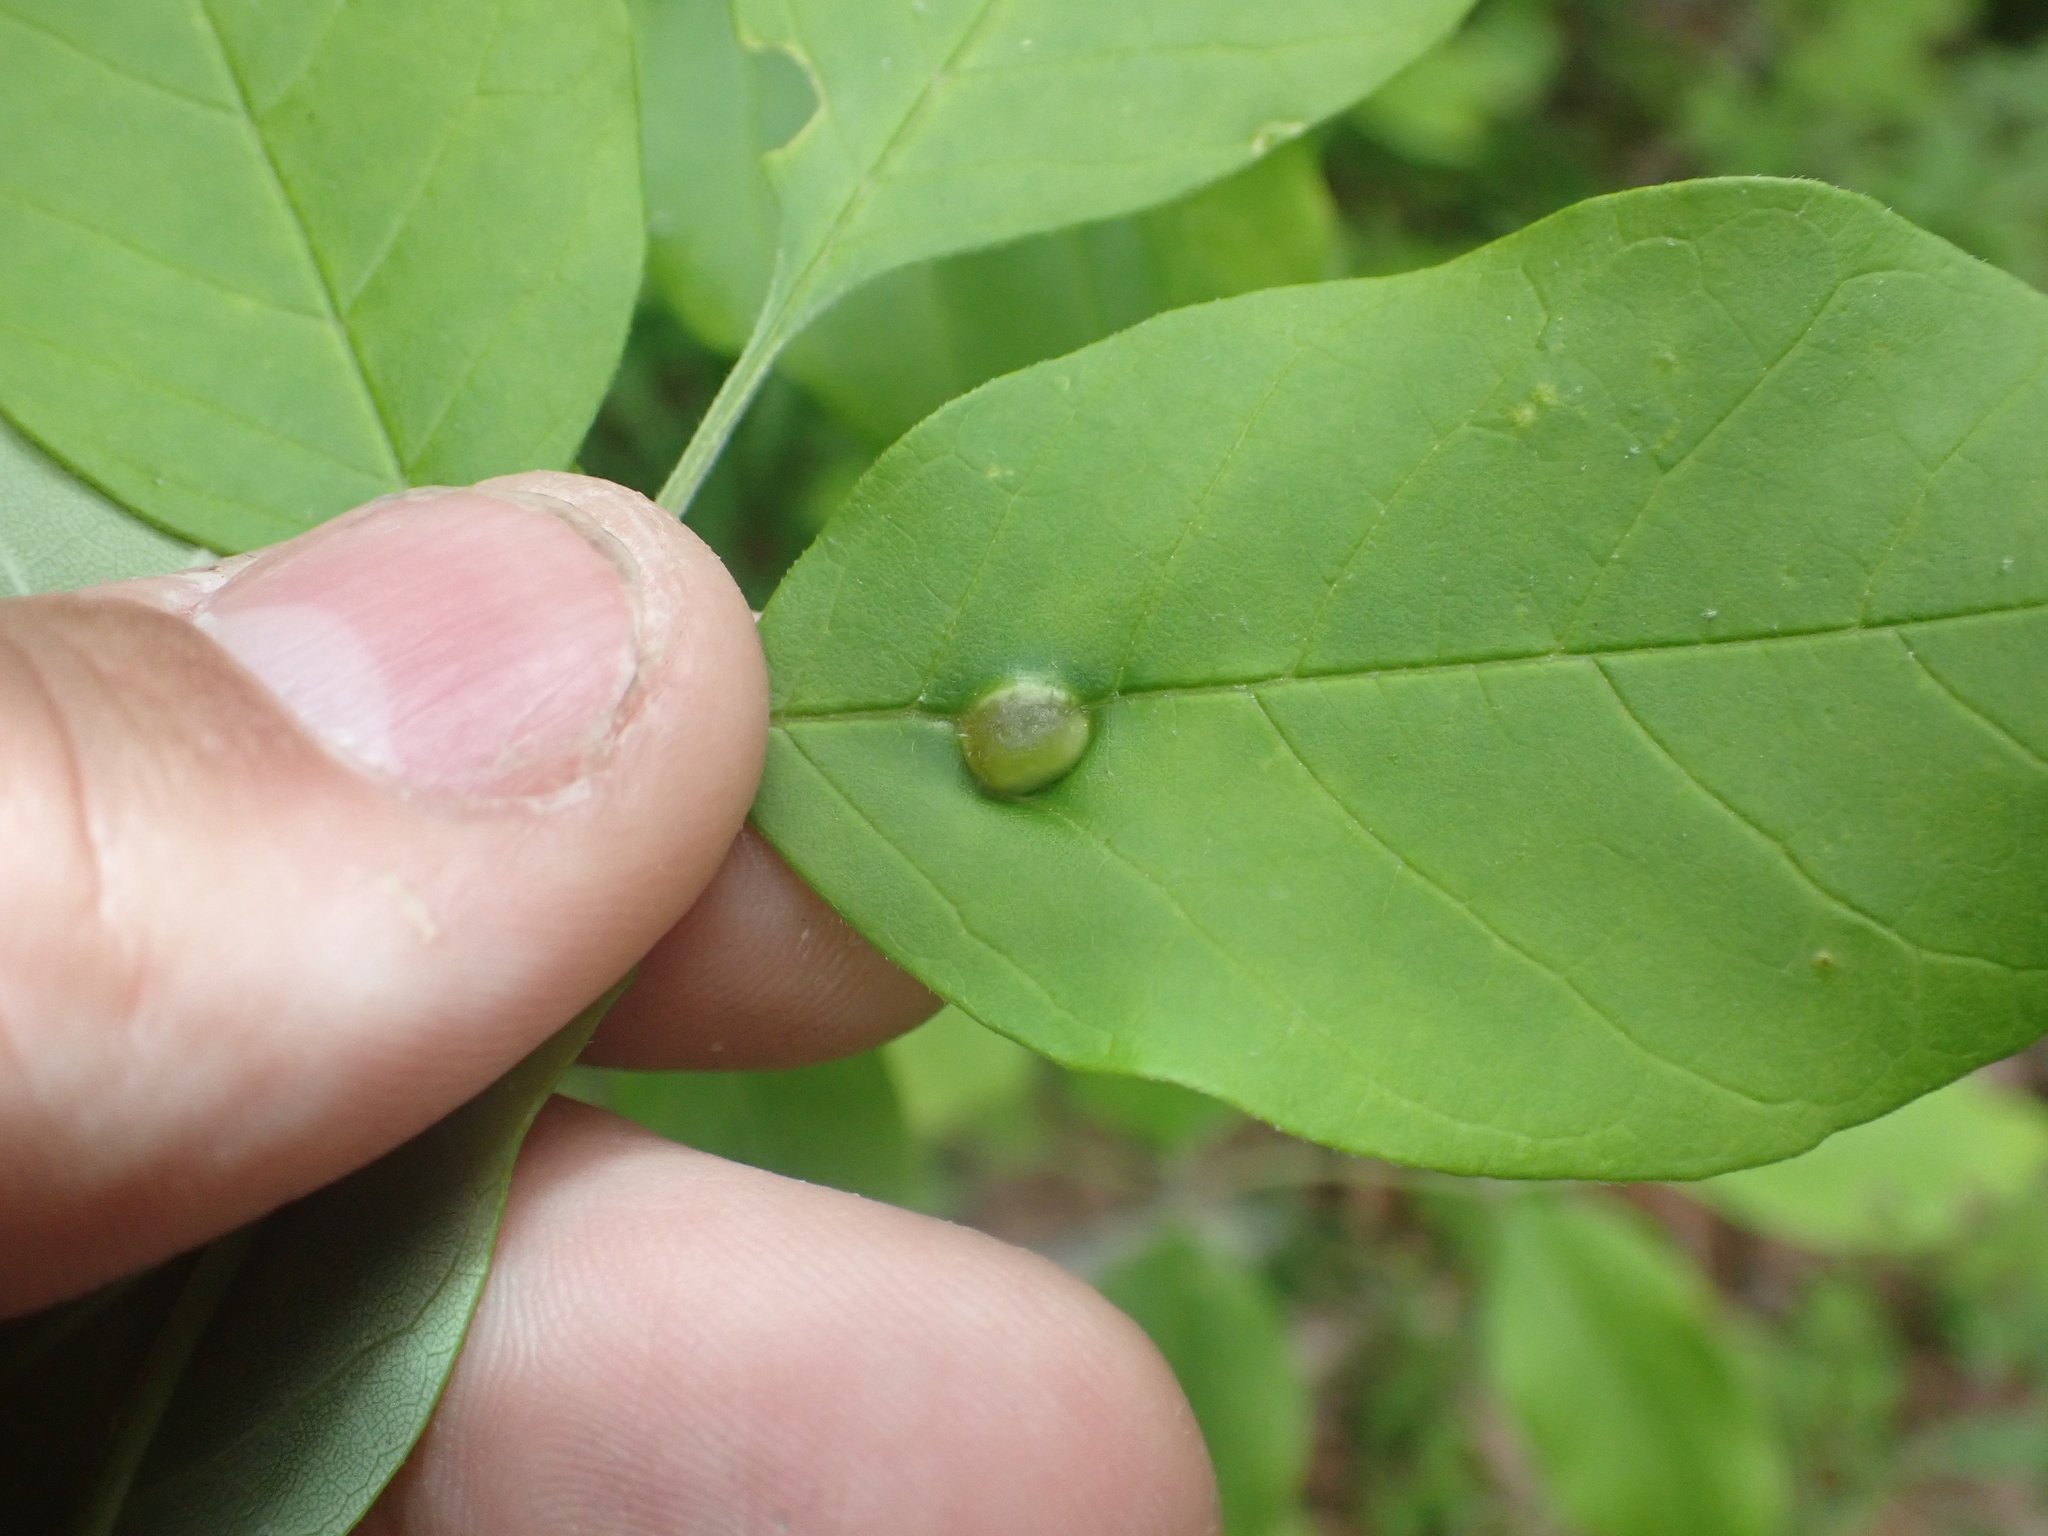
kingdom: Animalia
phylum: Arthropoda
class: Insecta
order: Diptera
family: Cecidomyiidae
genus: Dasineura
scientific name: Dasineura pellex
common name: Ash bullet gall midge
